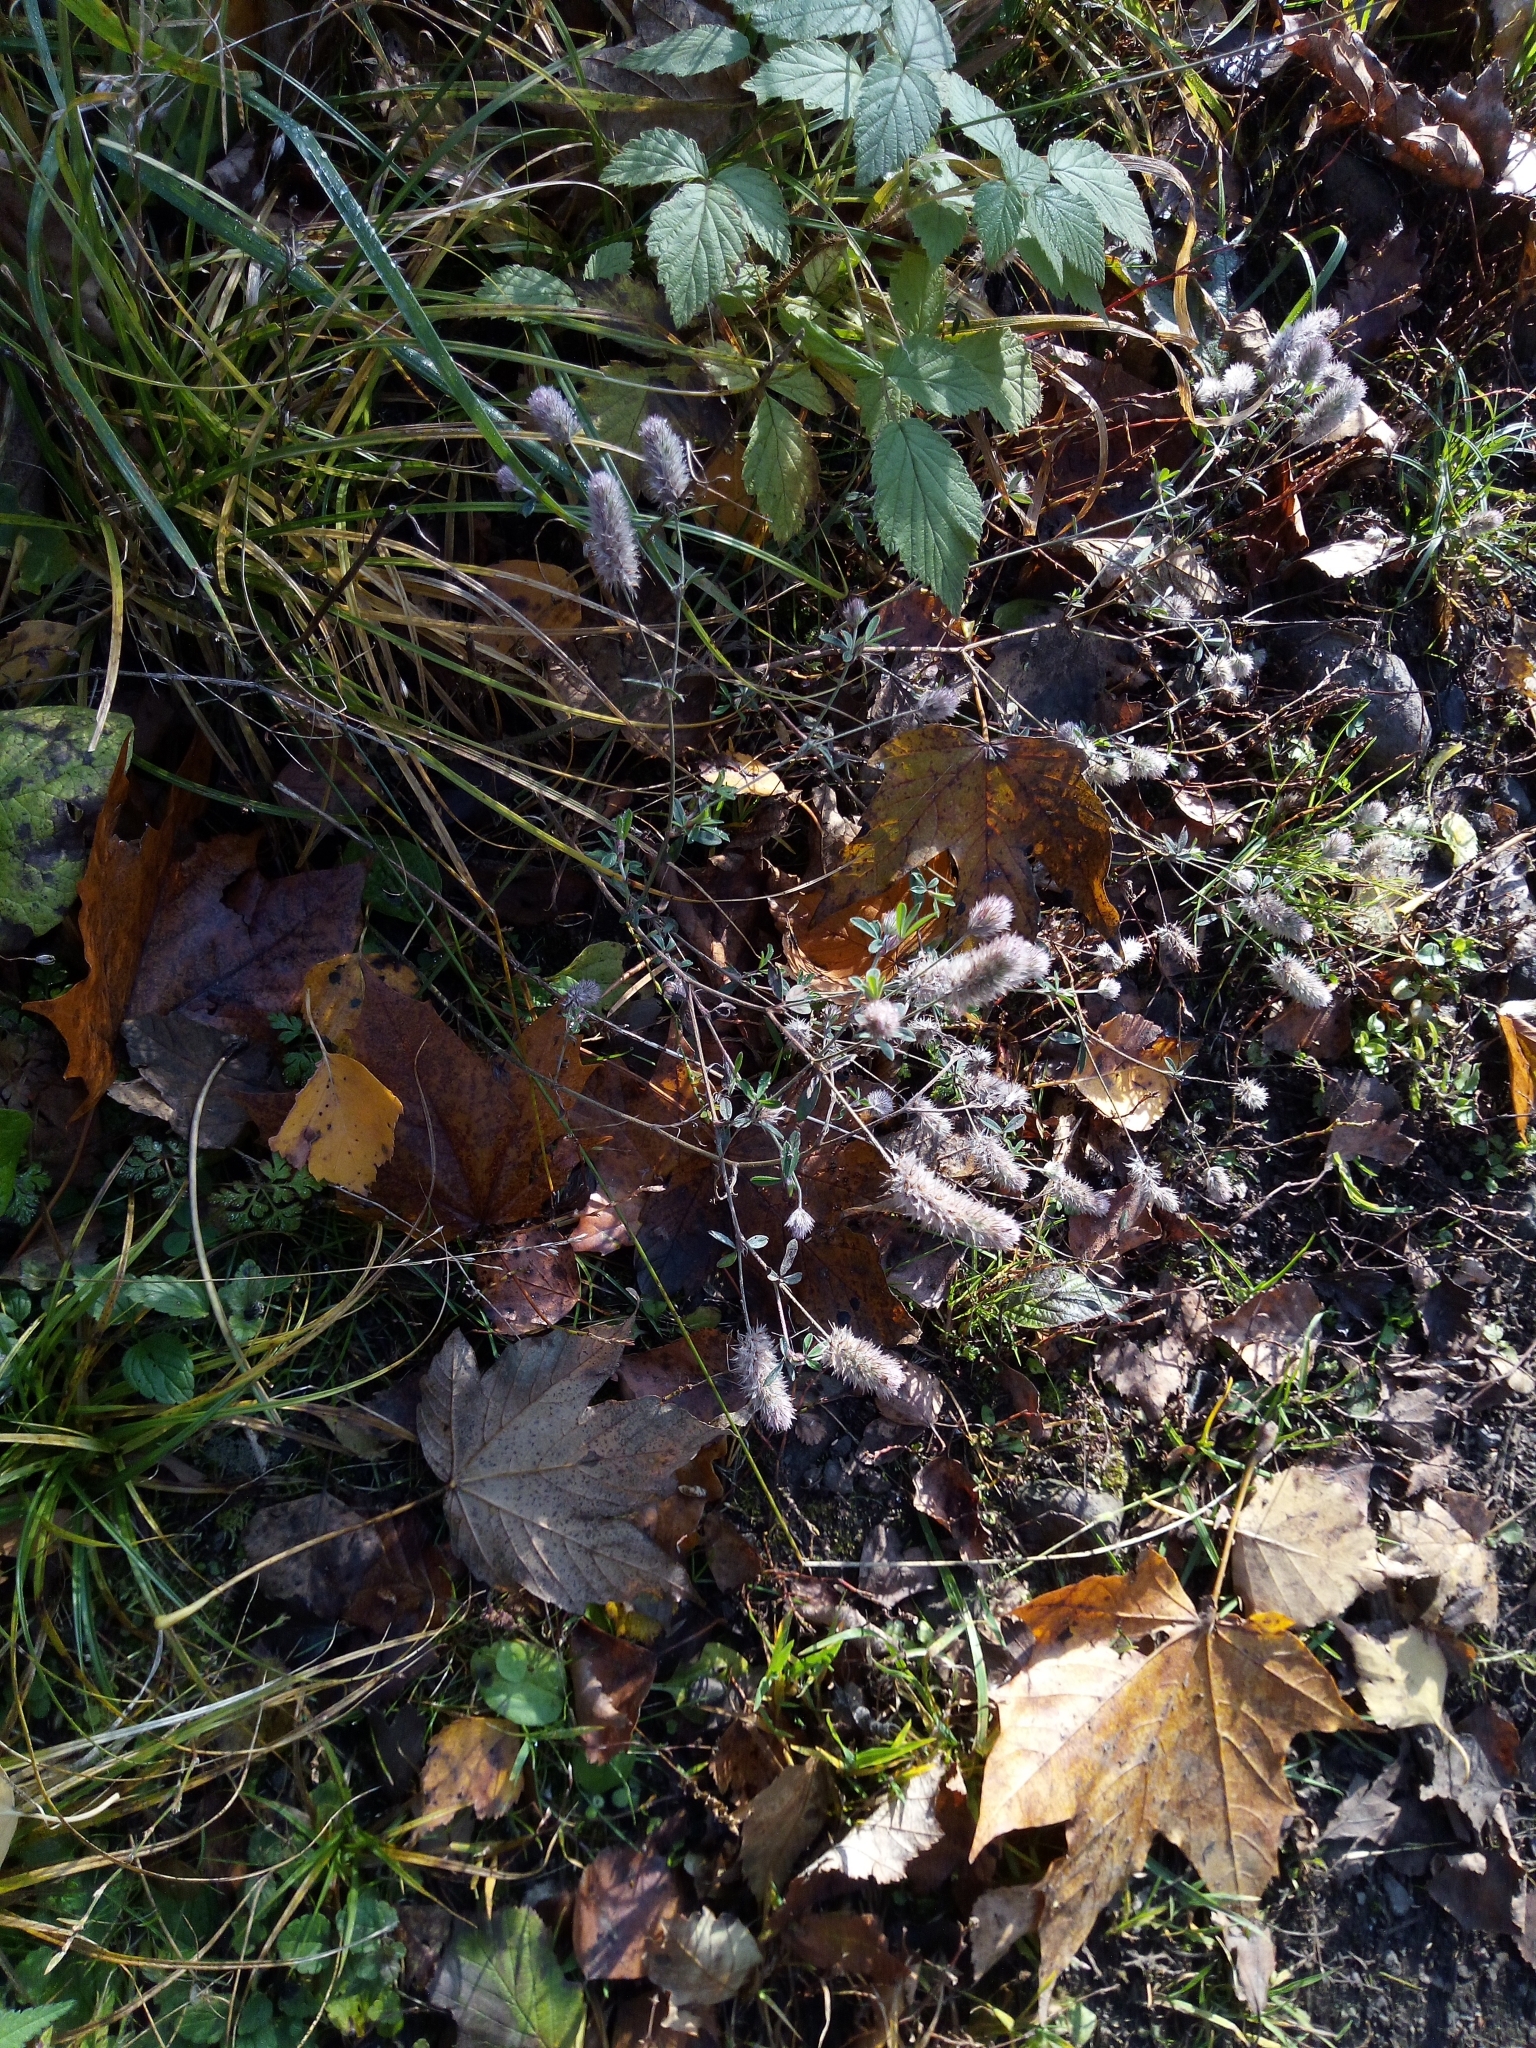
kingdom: Plantae
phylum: Tracheophyta
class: Magnoliopsida
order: Fabales
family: Fabaceae
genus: Trifolium
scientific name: Trifolium arvense
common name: Hare's-foot clover
